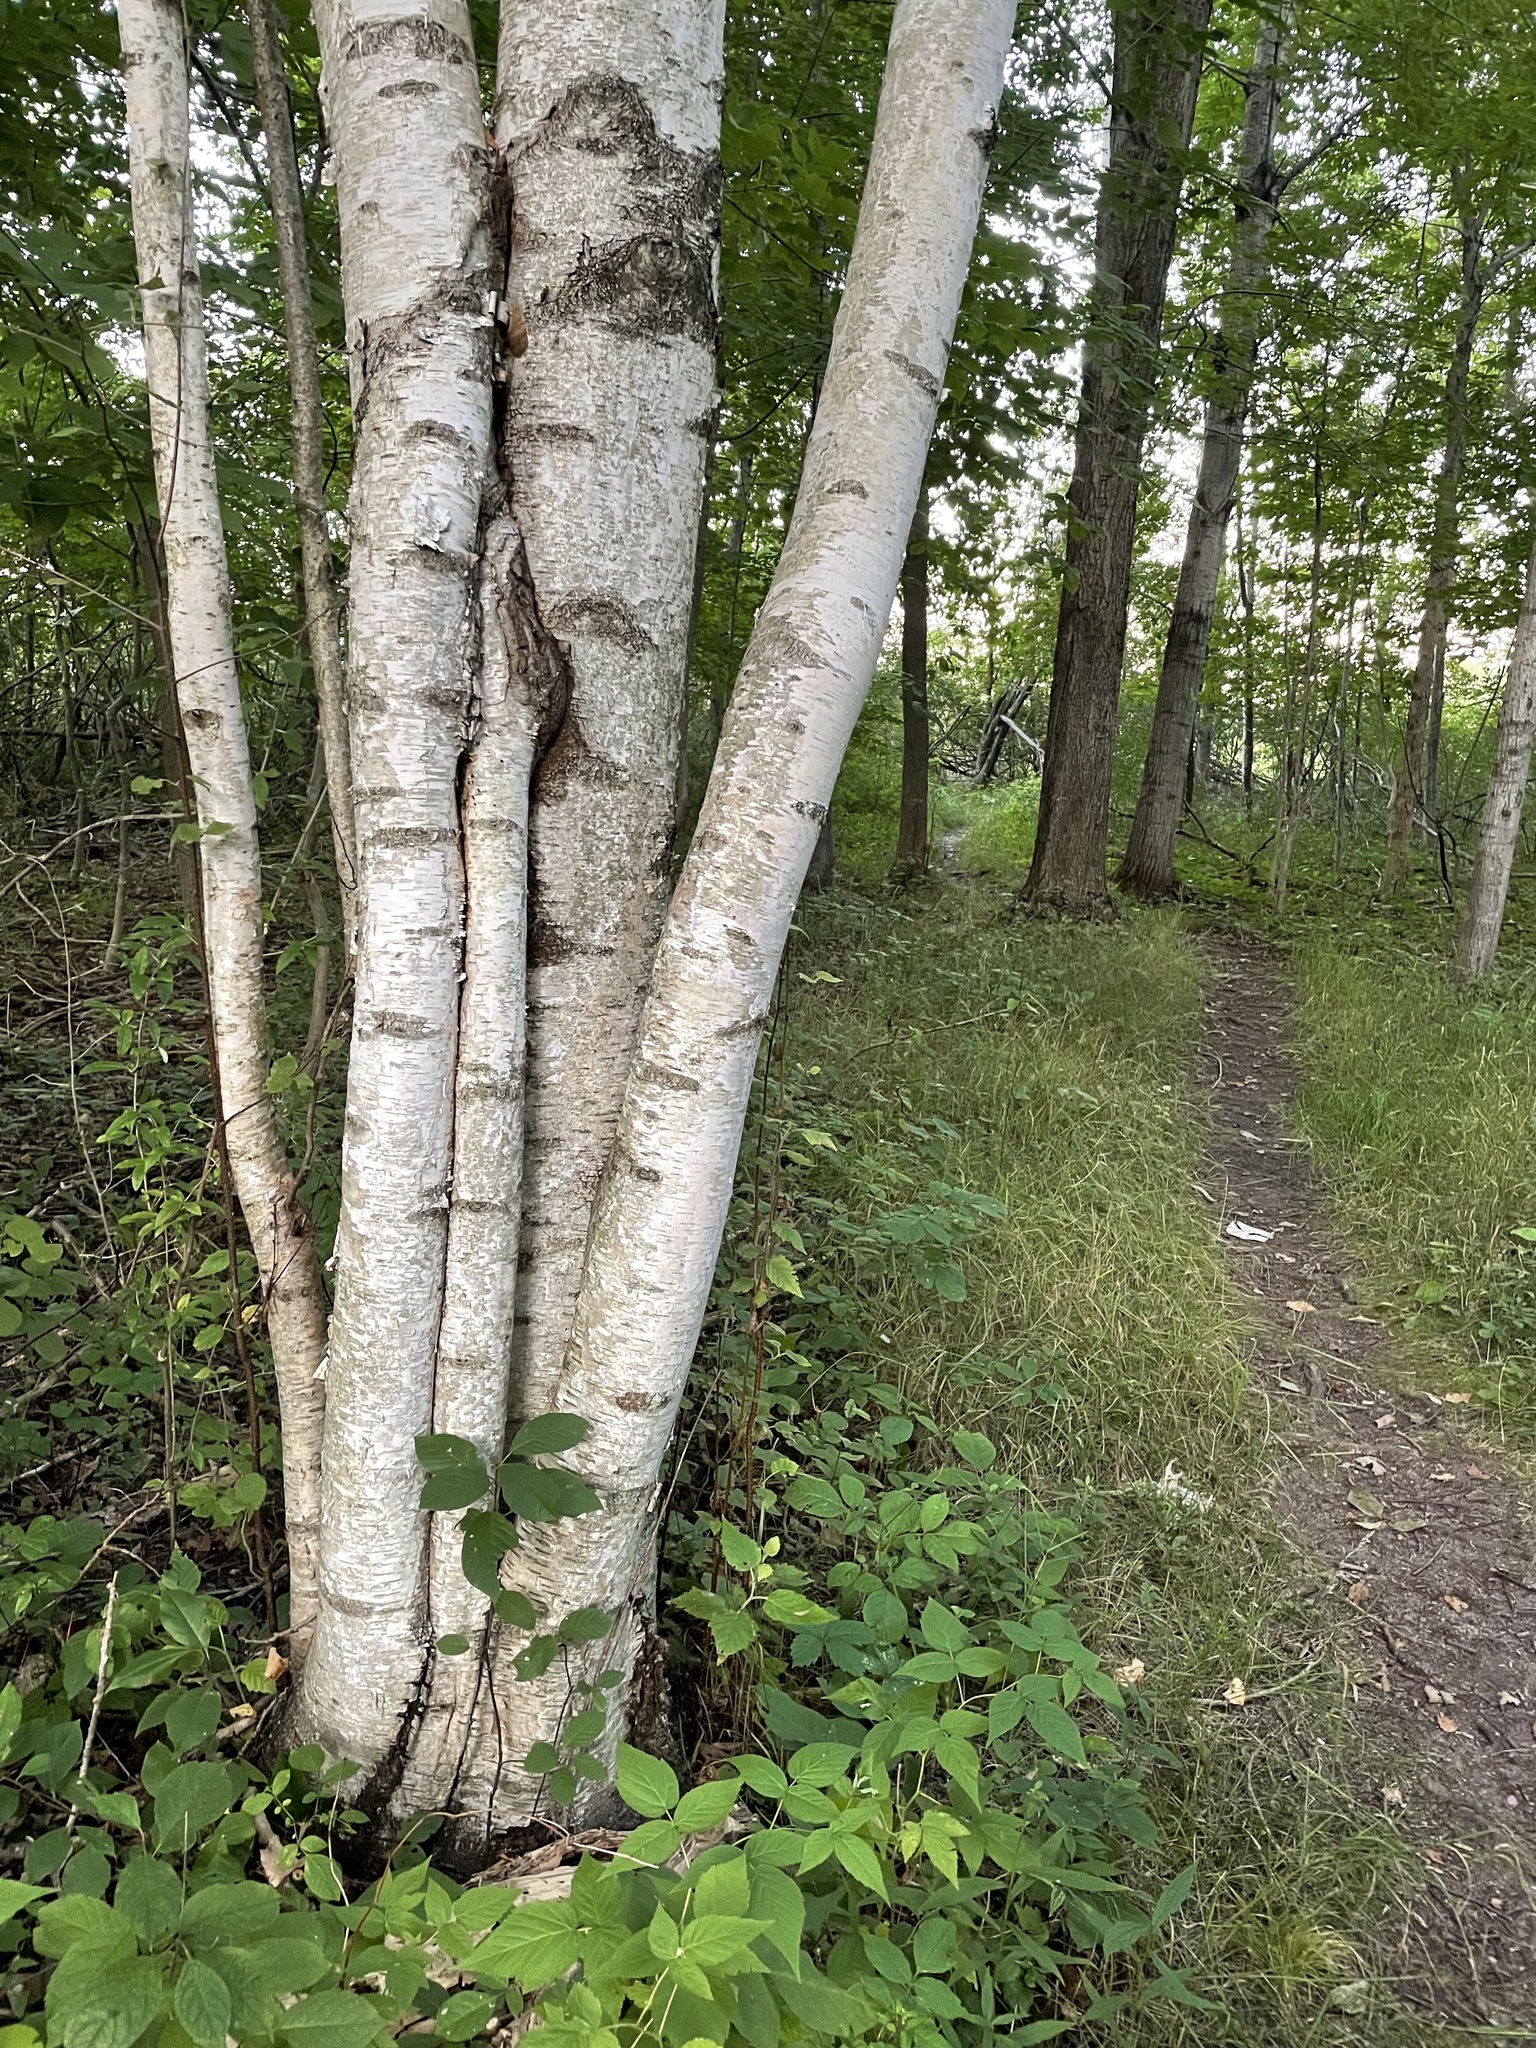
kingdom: Plantae
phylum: Tracheophyta
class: Magnoliopsida
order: Fagales
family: Betulaceae
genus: Betula
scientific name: Betula papyrifera
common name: Paper birch
